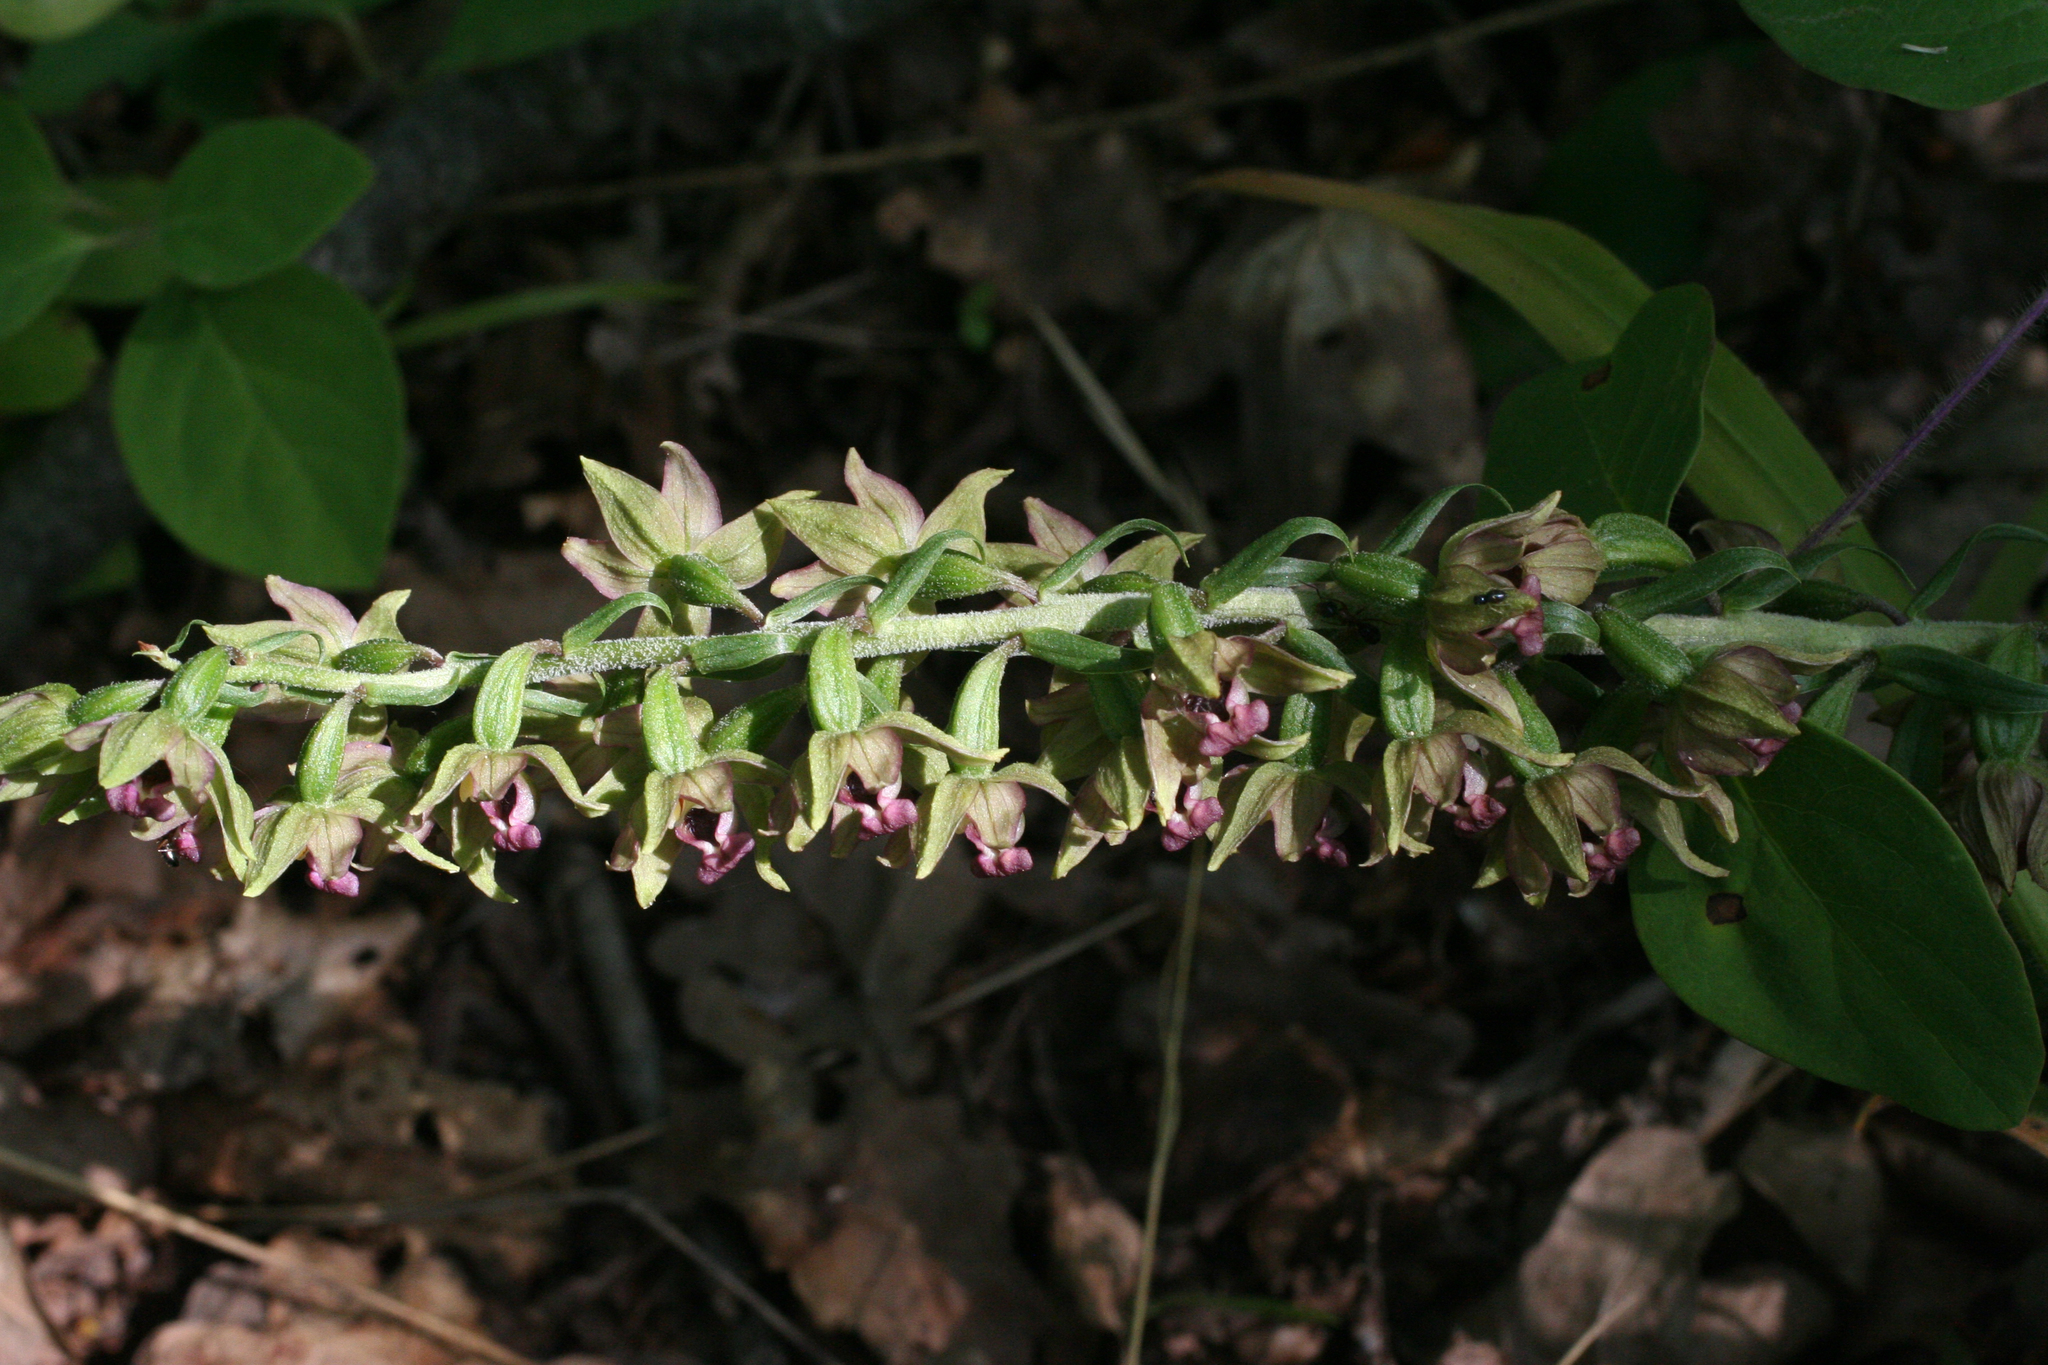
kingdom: Plantae
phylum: Tracheophyta
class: Liliopsida
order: Asparagales
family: Orchidaceae
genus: Epipactis
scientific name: Epipactis helleborine
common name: Broad-leaved helleborine
